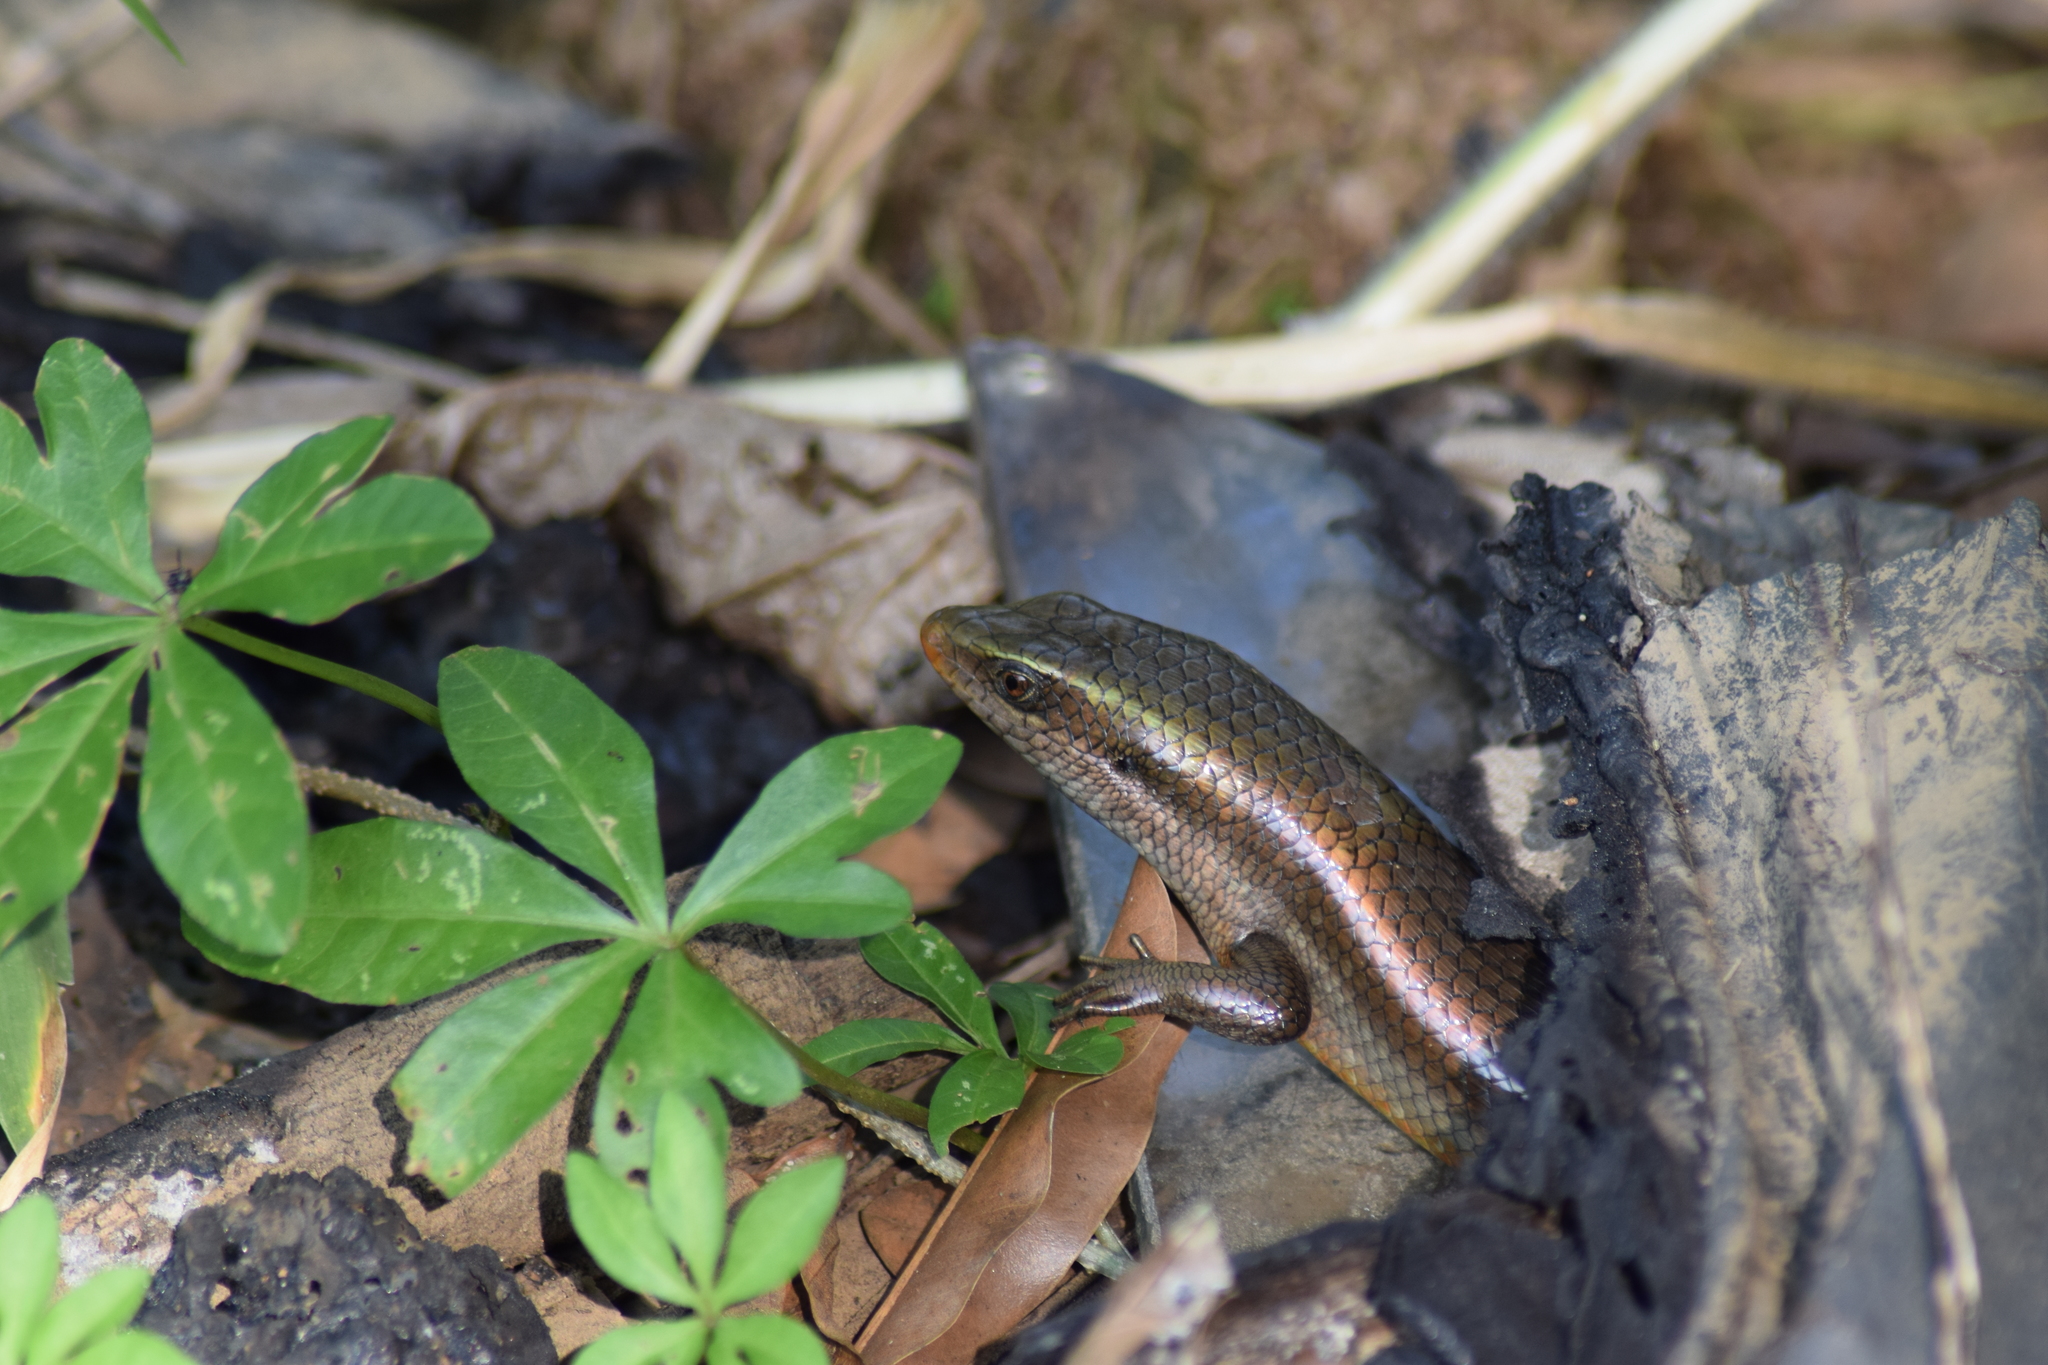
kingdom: Animalia
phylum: Chordata
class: Squamata
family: Scincidae
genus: Eutropis
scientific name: Eutropis carinata
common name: Keeled indian mabuya
